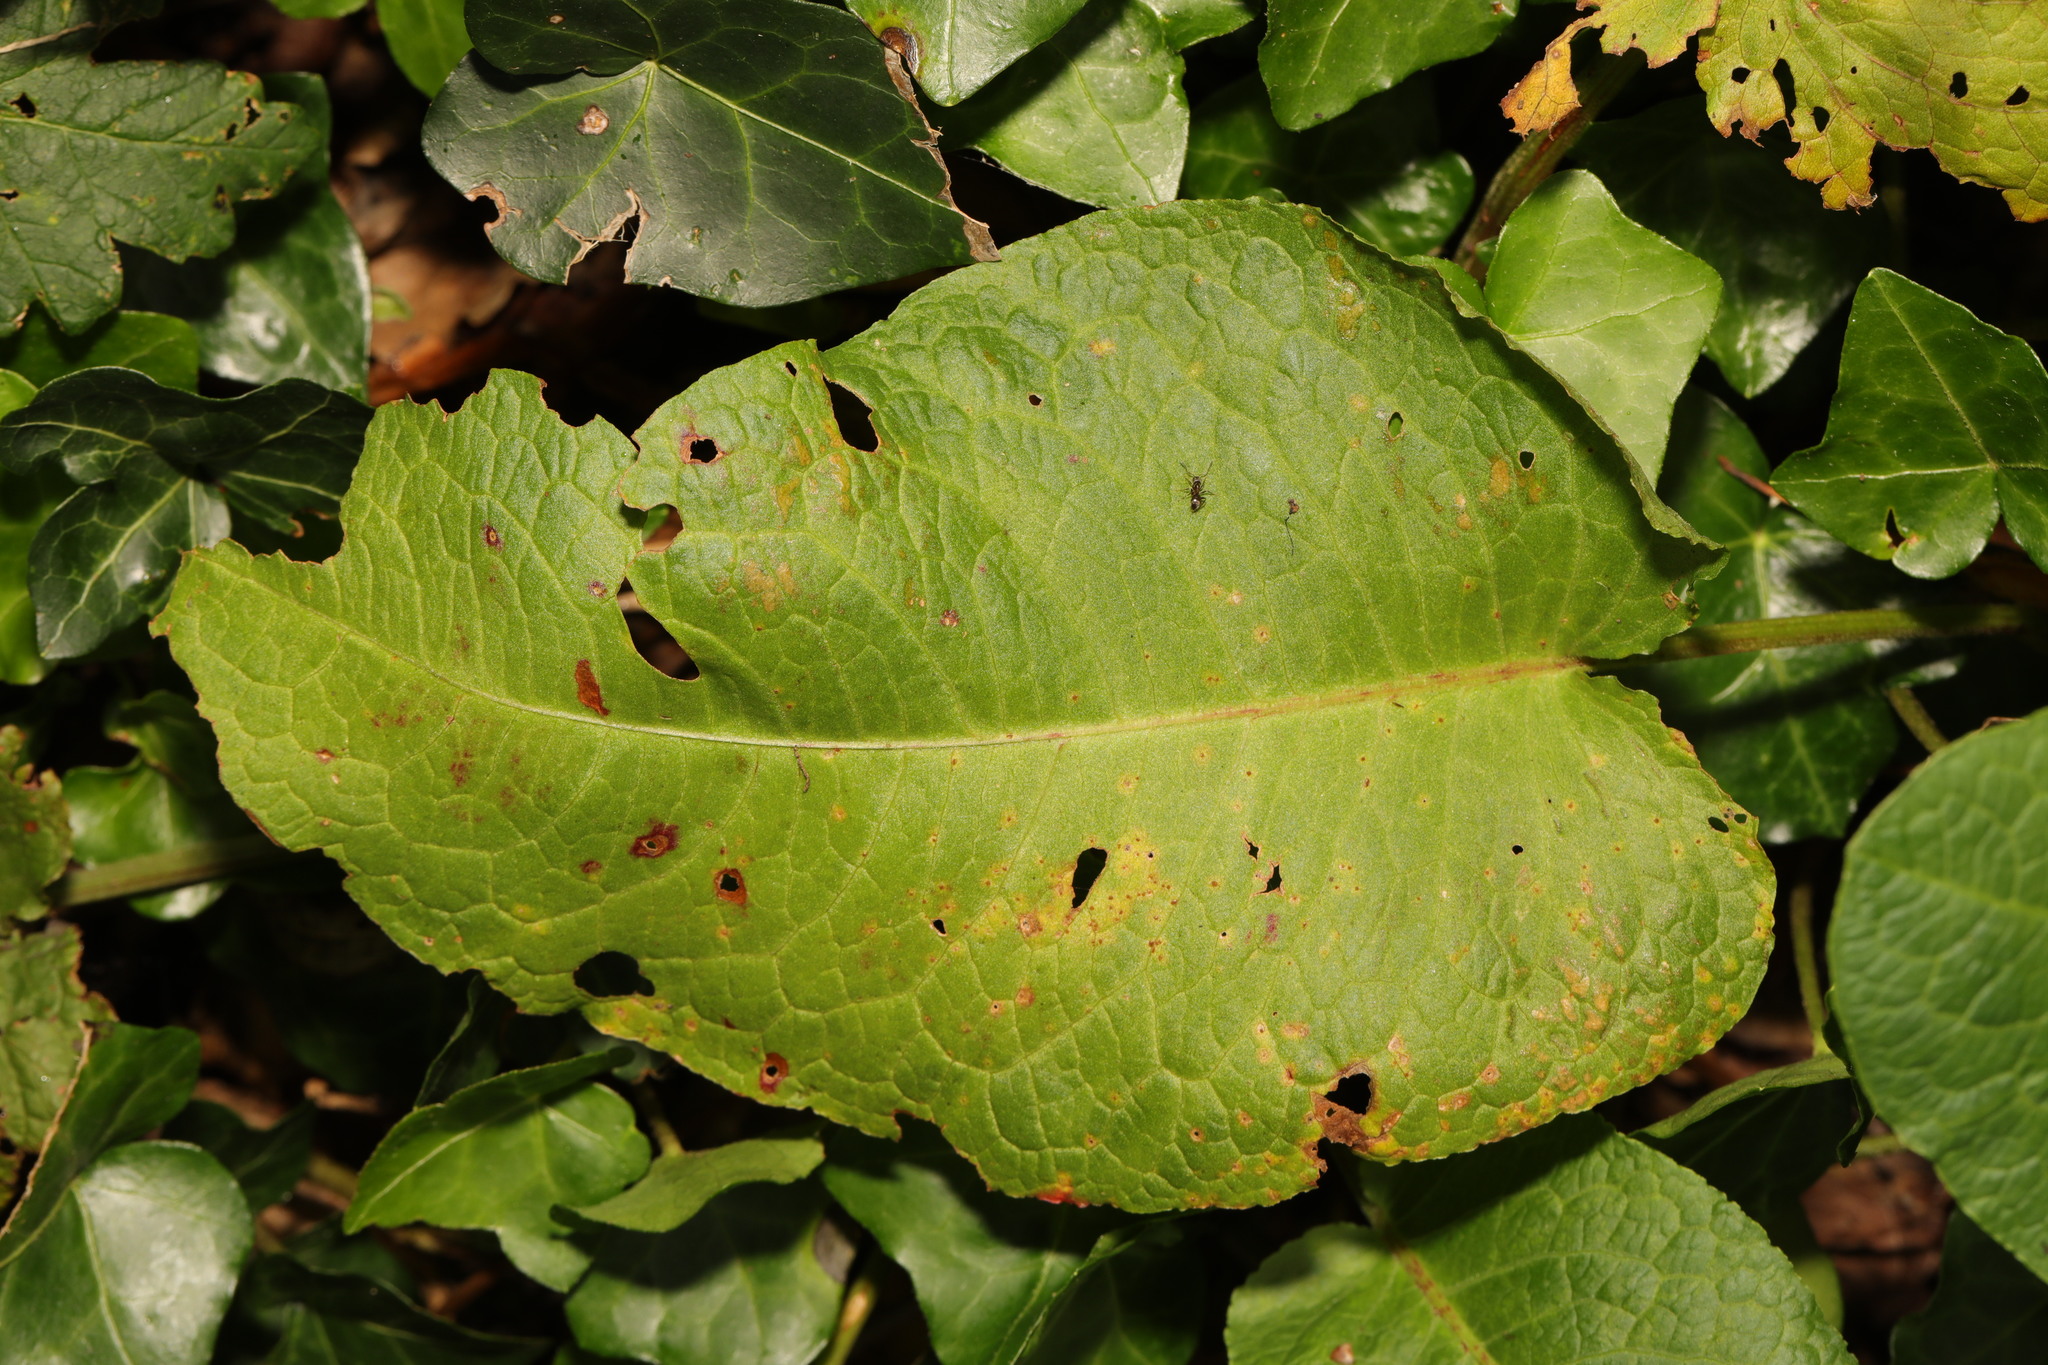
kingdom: Plantae
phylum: Tracheophyta
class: Magnoliopsida
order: Caryophyllales
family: Polygonaceae
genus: Rumex
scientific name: Rumex obtusifolius
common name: Bitter dock
